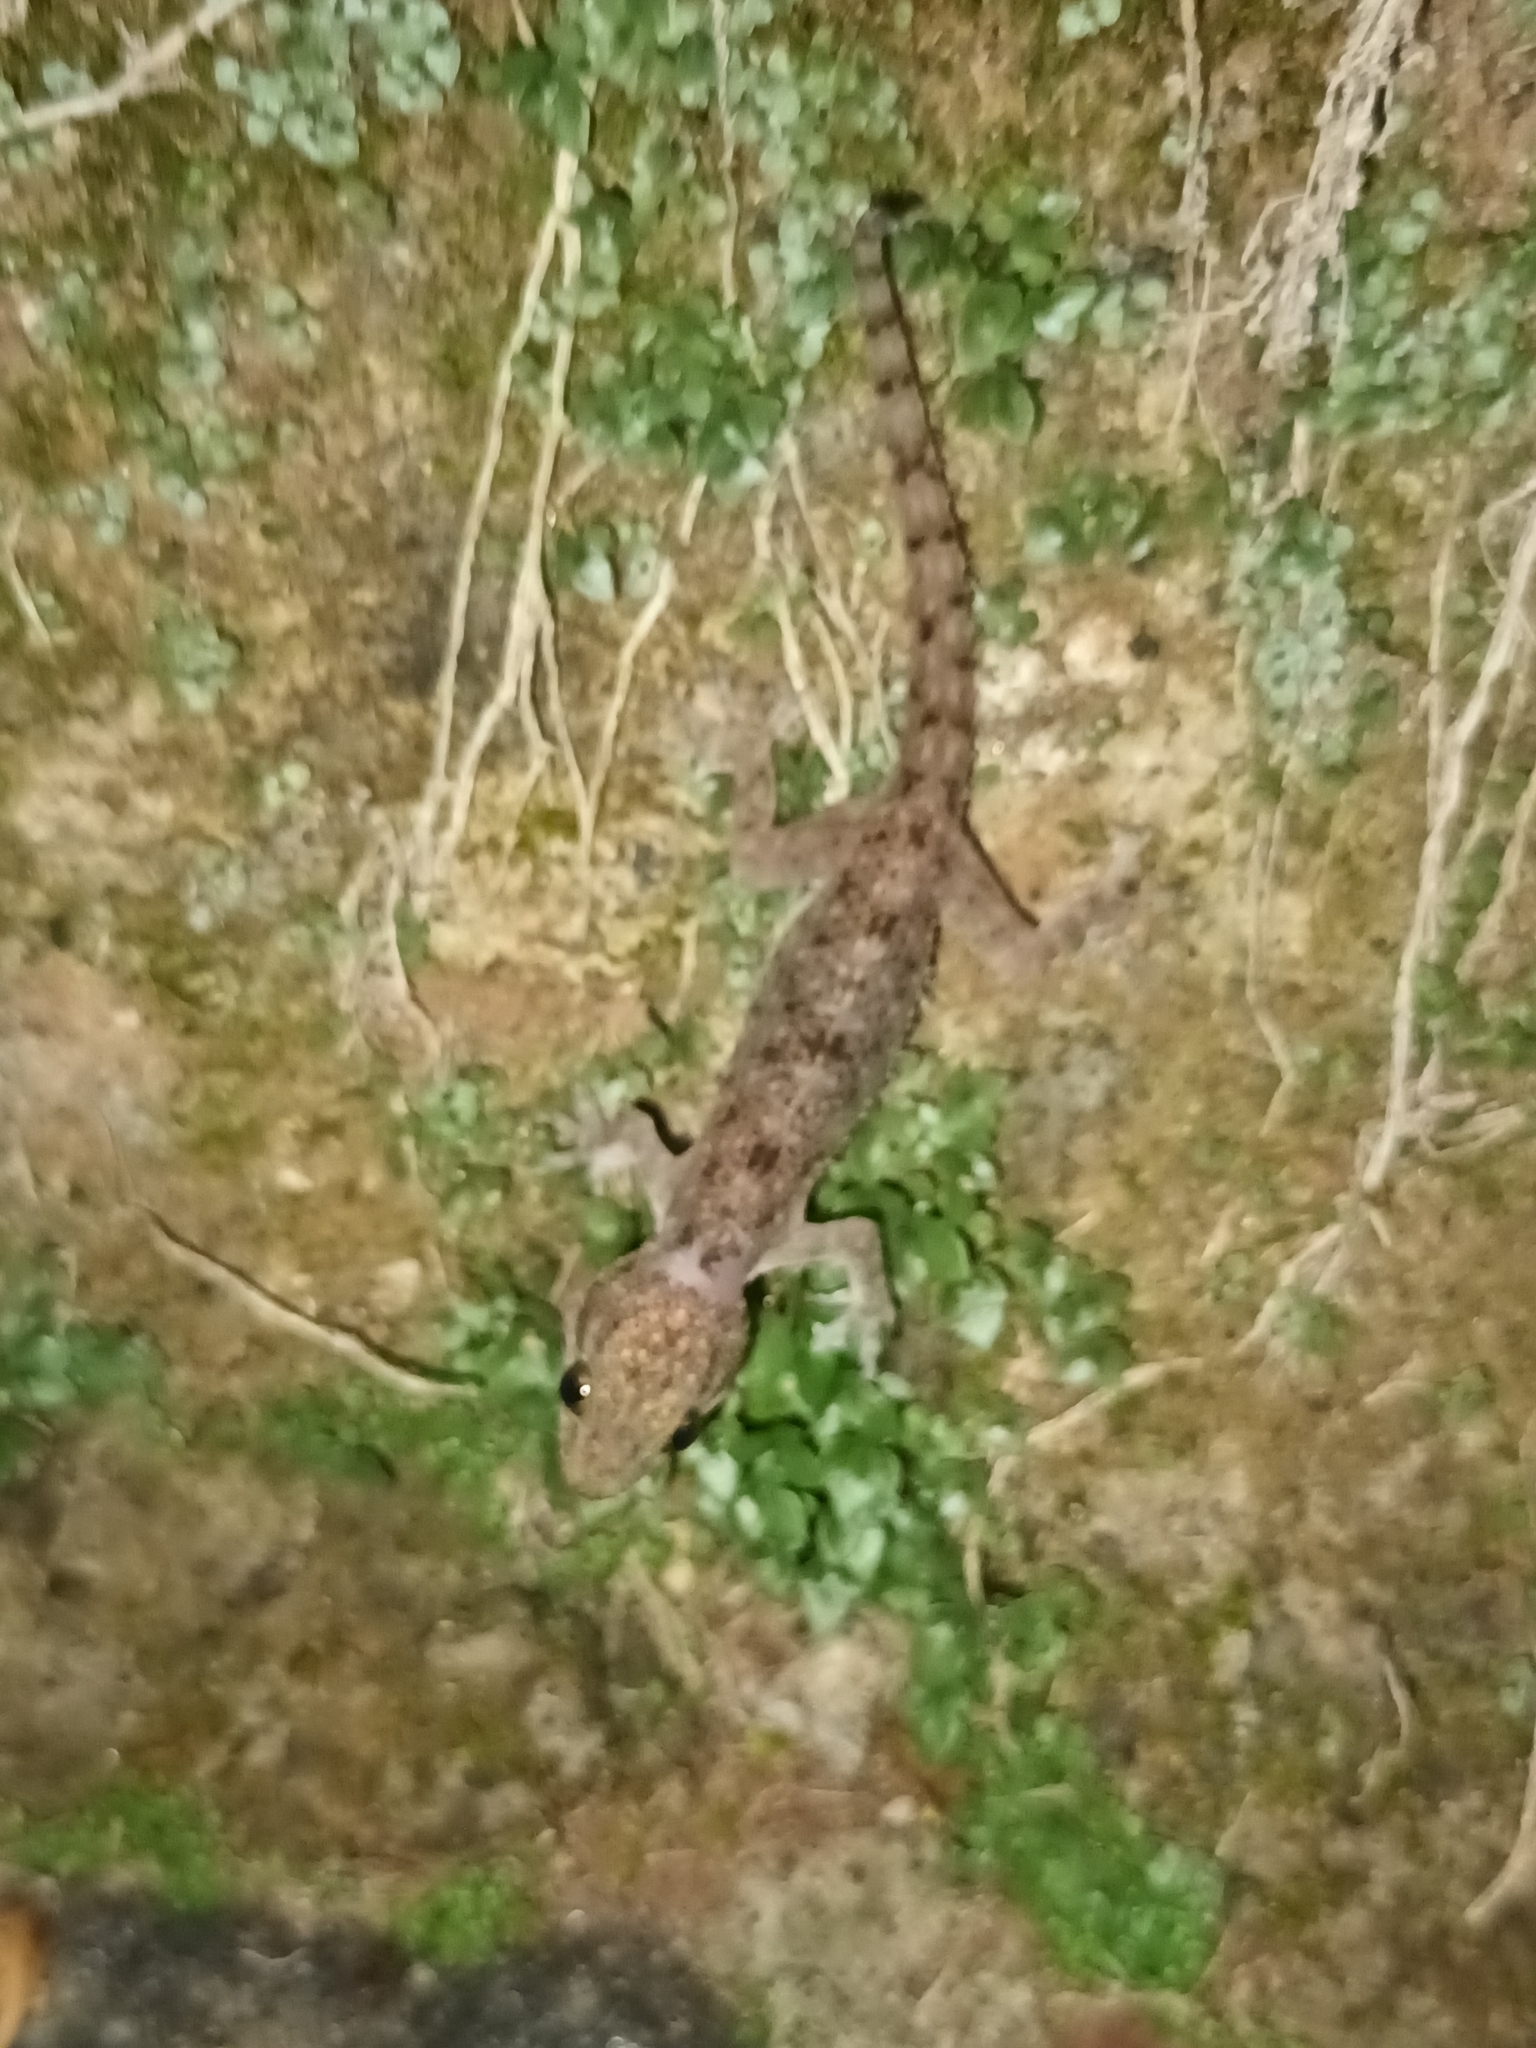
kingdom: Animalia
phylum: Chordata
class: Squamata
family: Gekkonidae
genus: Hemidactylus
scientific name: Hemidactylus parvimaculatus
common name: Spotted house gecko
